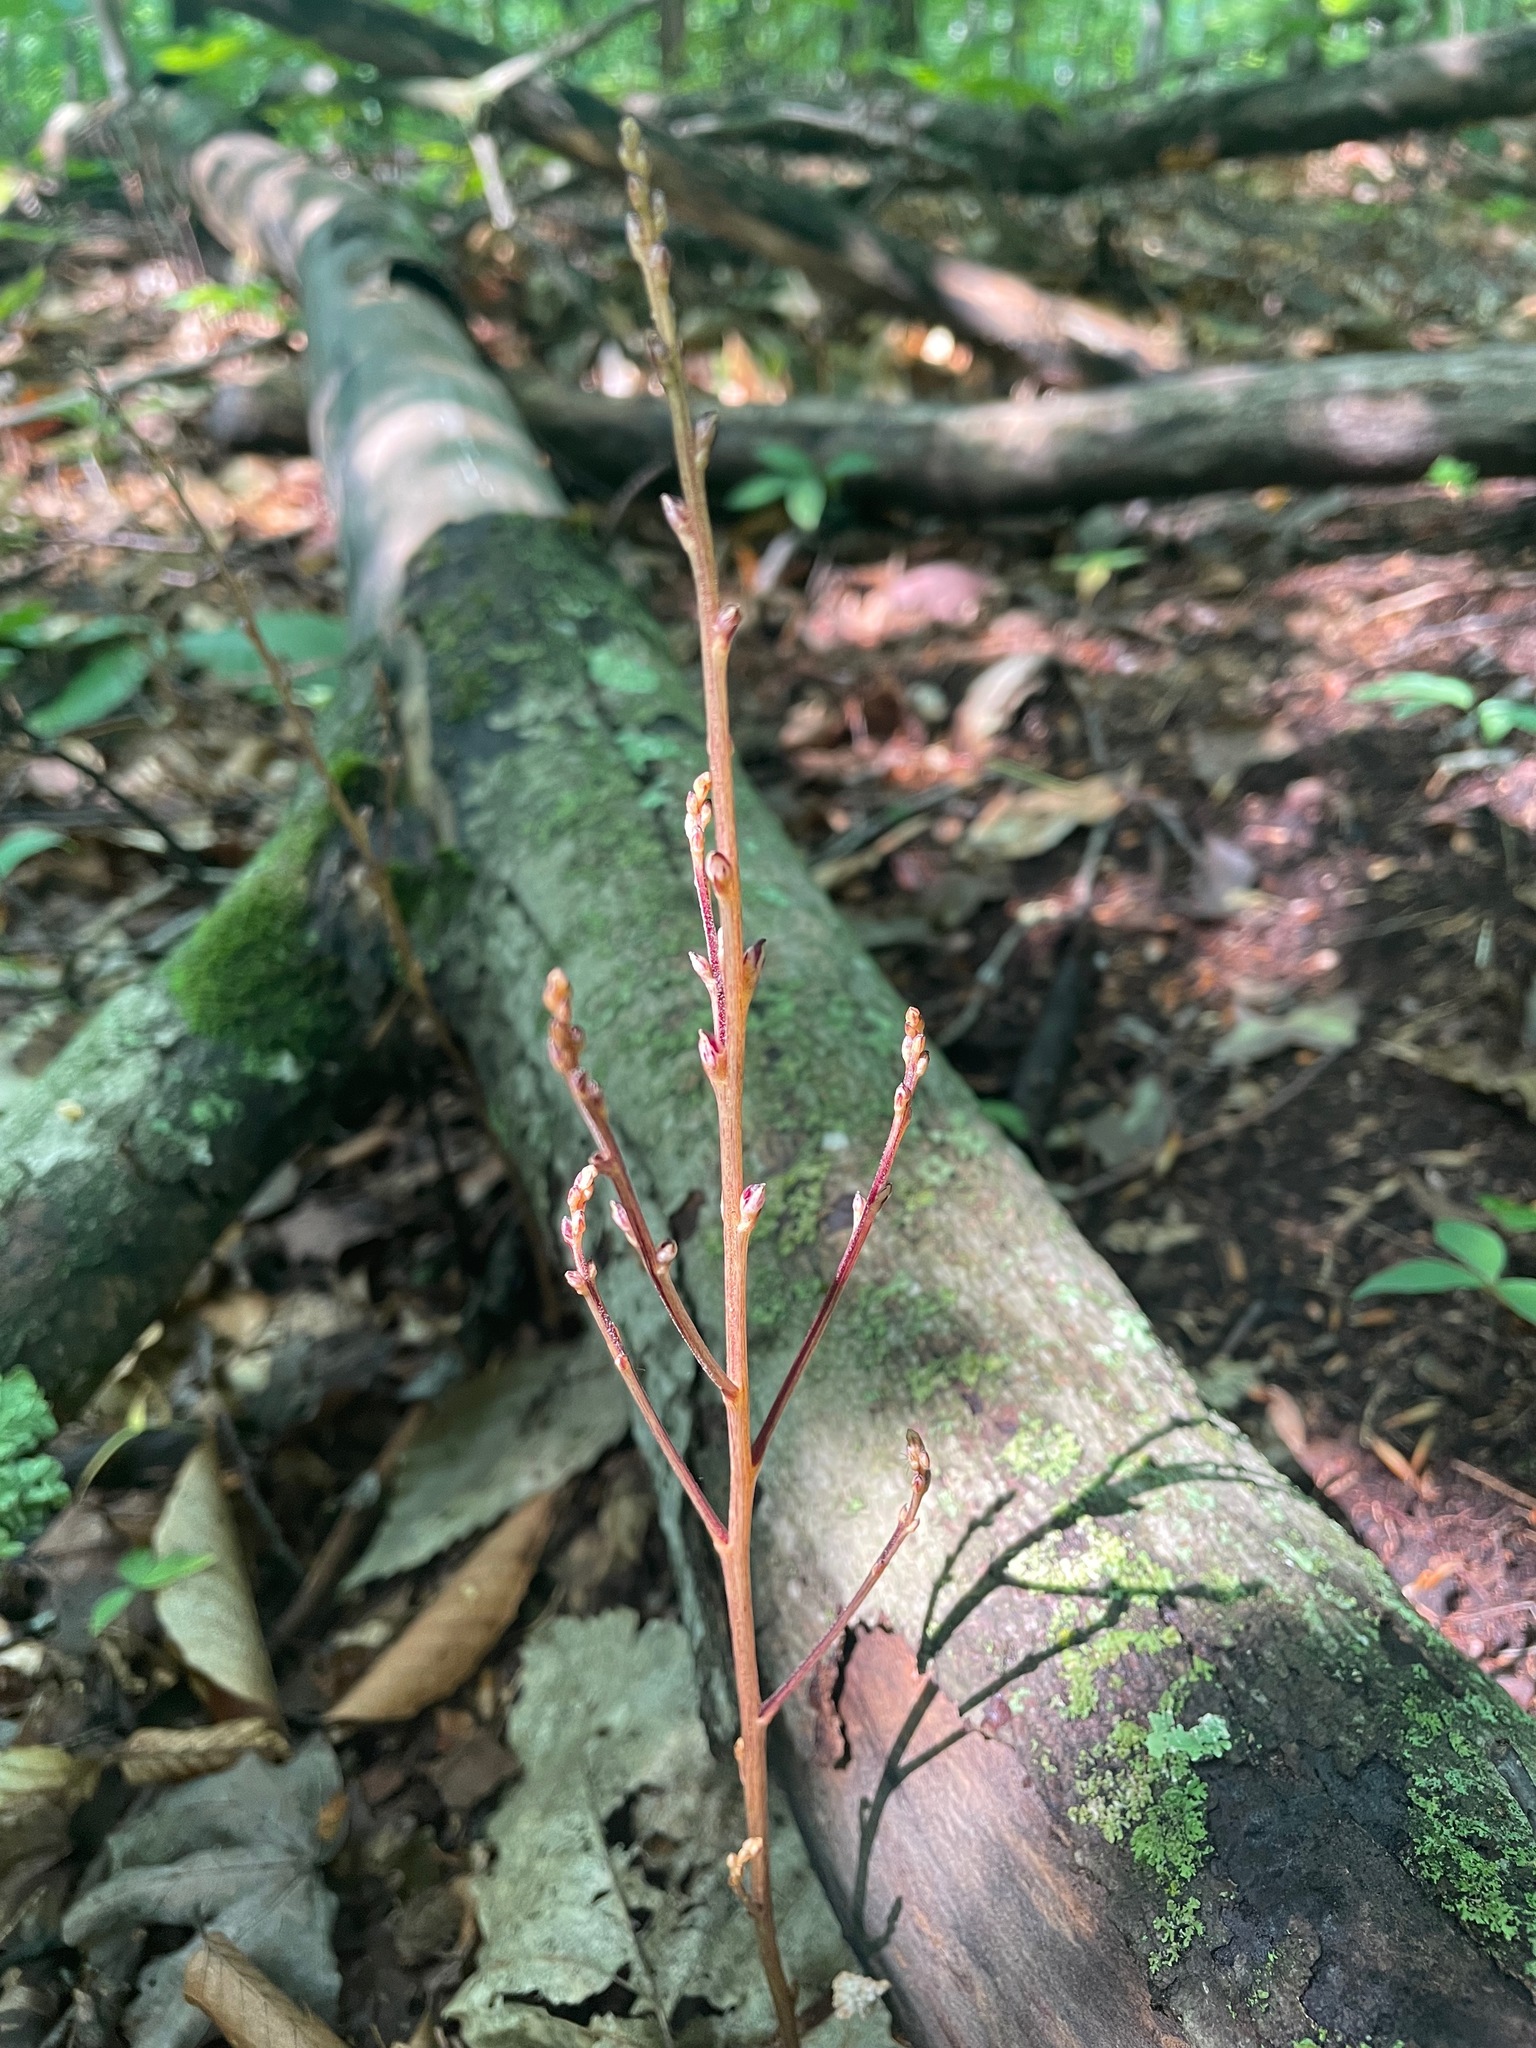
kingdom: Plantae
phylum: Tracheophyta
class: Magnoliopsida
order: Lamiales
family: Orobanchaceae
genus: Epifagus
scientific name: Epifagus virginiana
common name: Beechdrops
